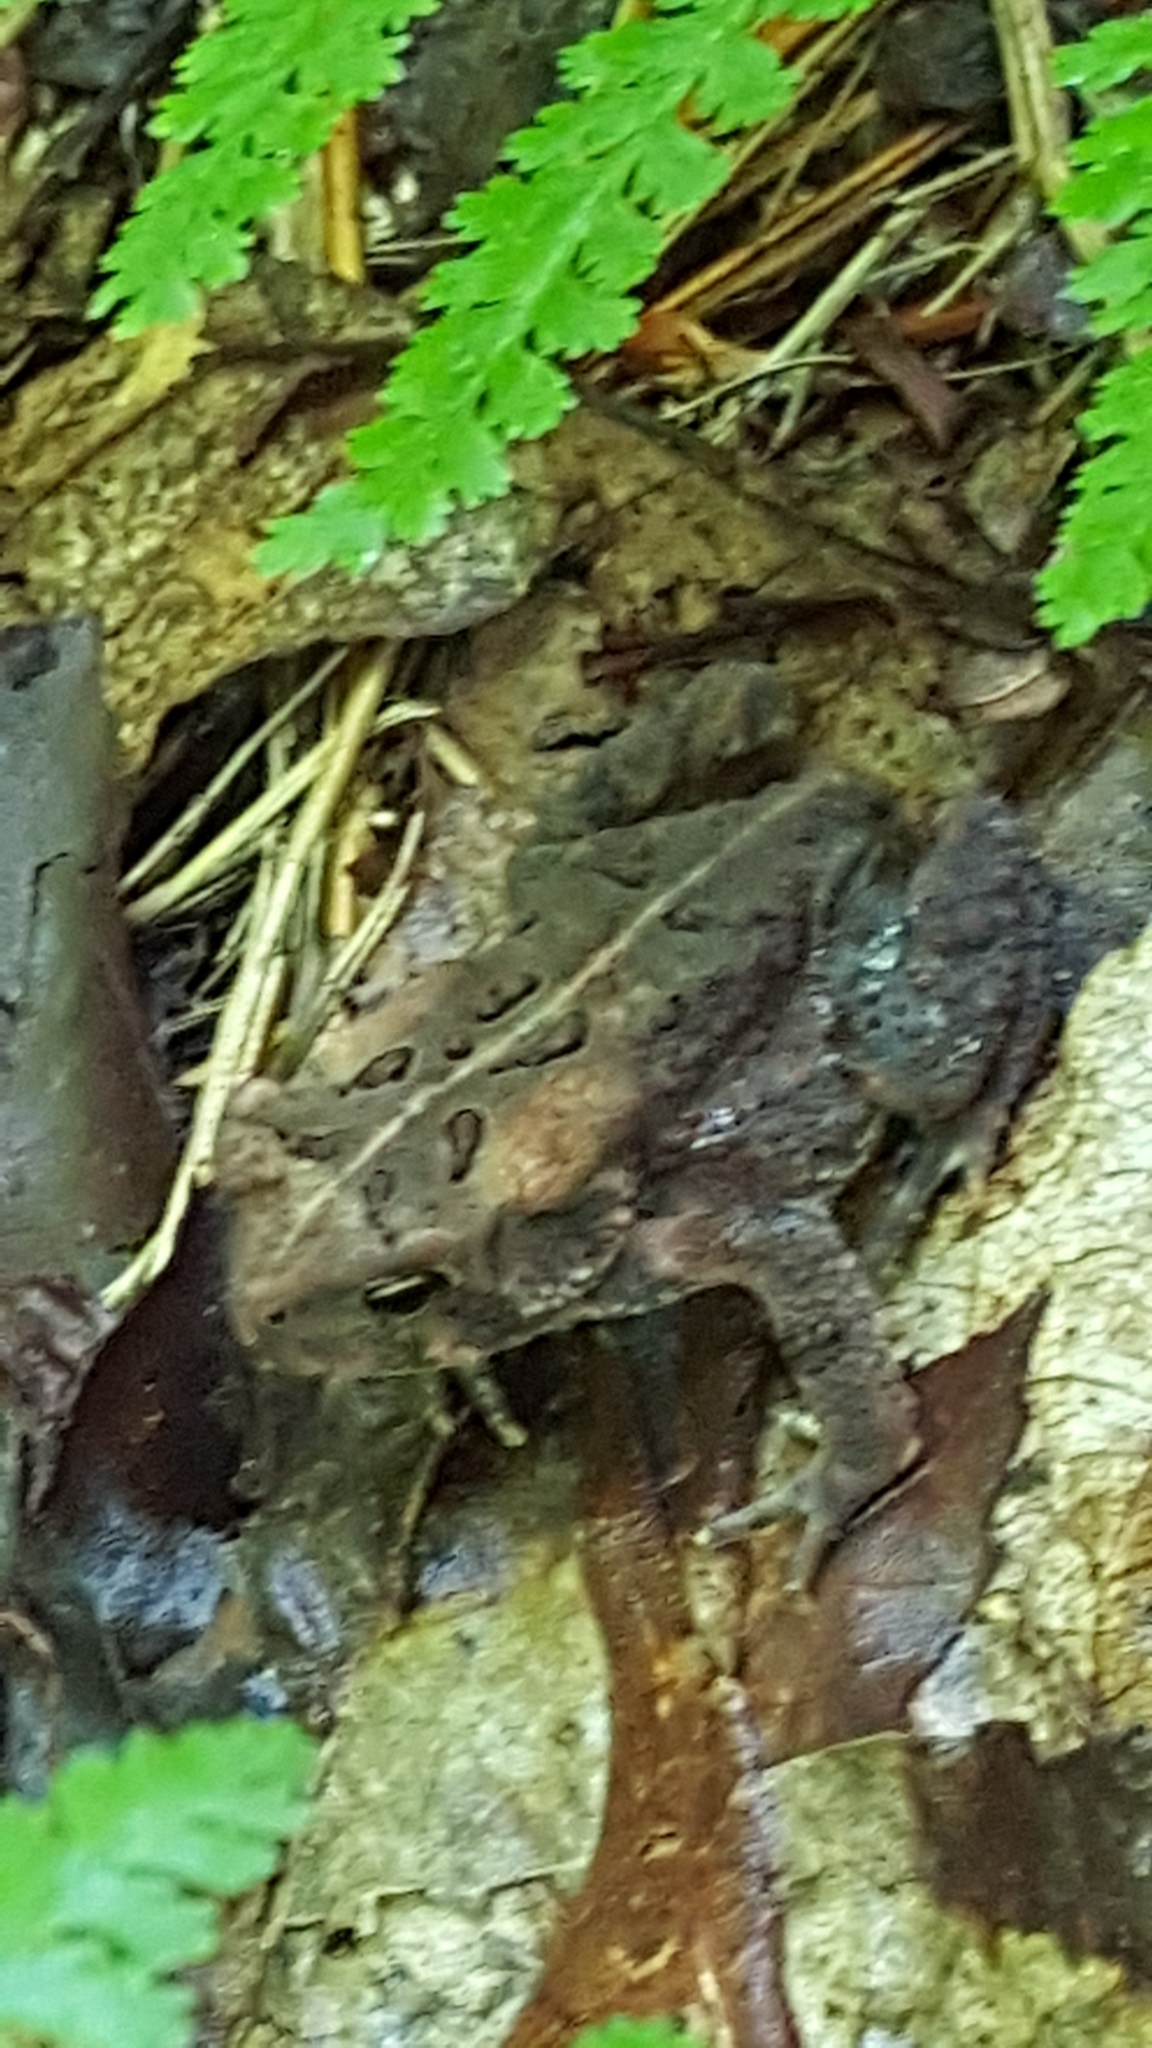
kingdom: Animalia
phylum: Chordata
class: Amphibia
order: Anura
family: Bufonidae
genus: Anaxyrus
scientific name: Anaxyrus americanus
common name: American toad
